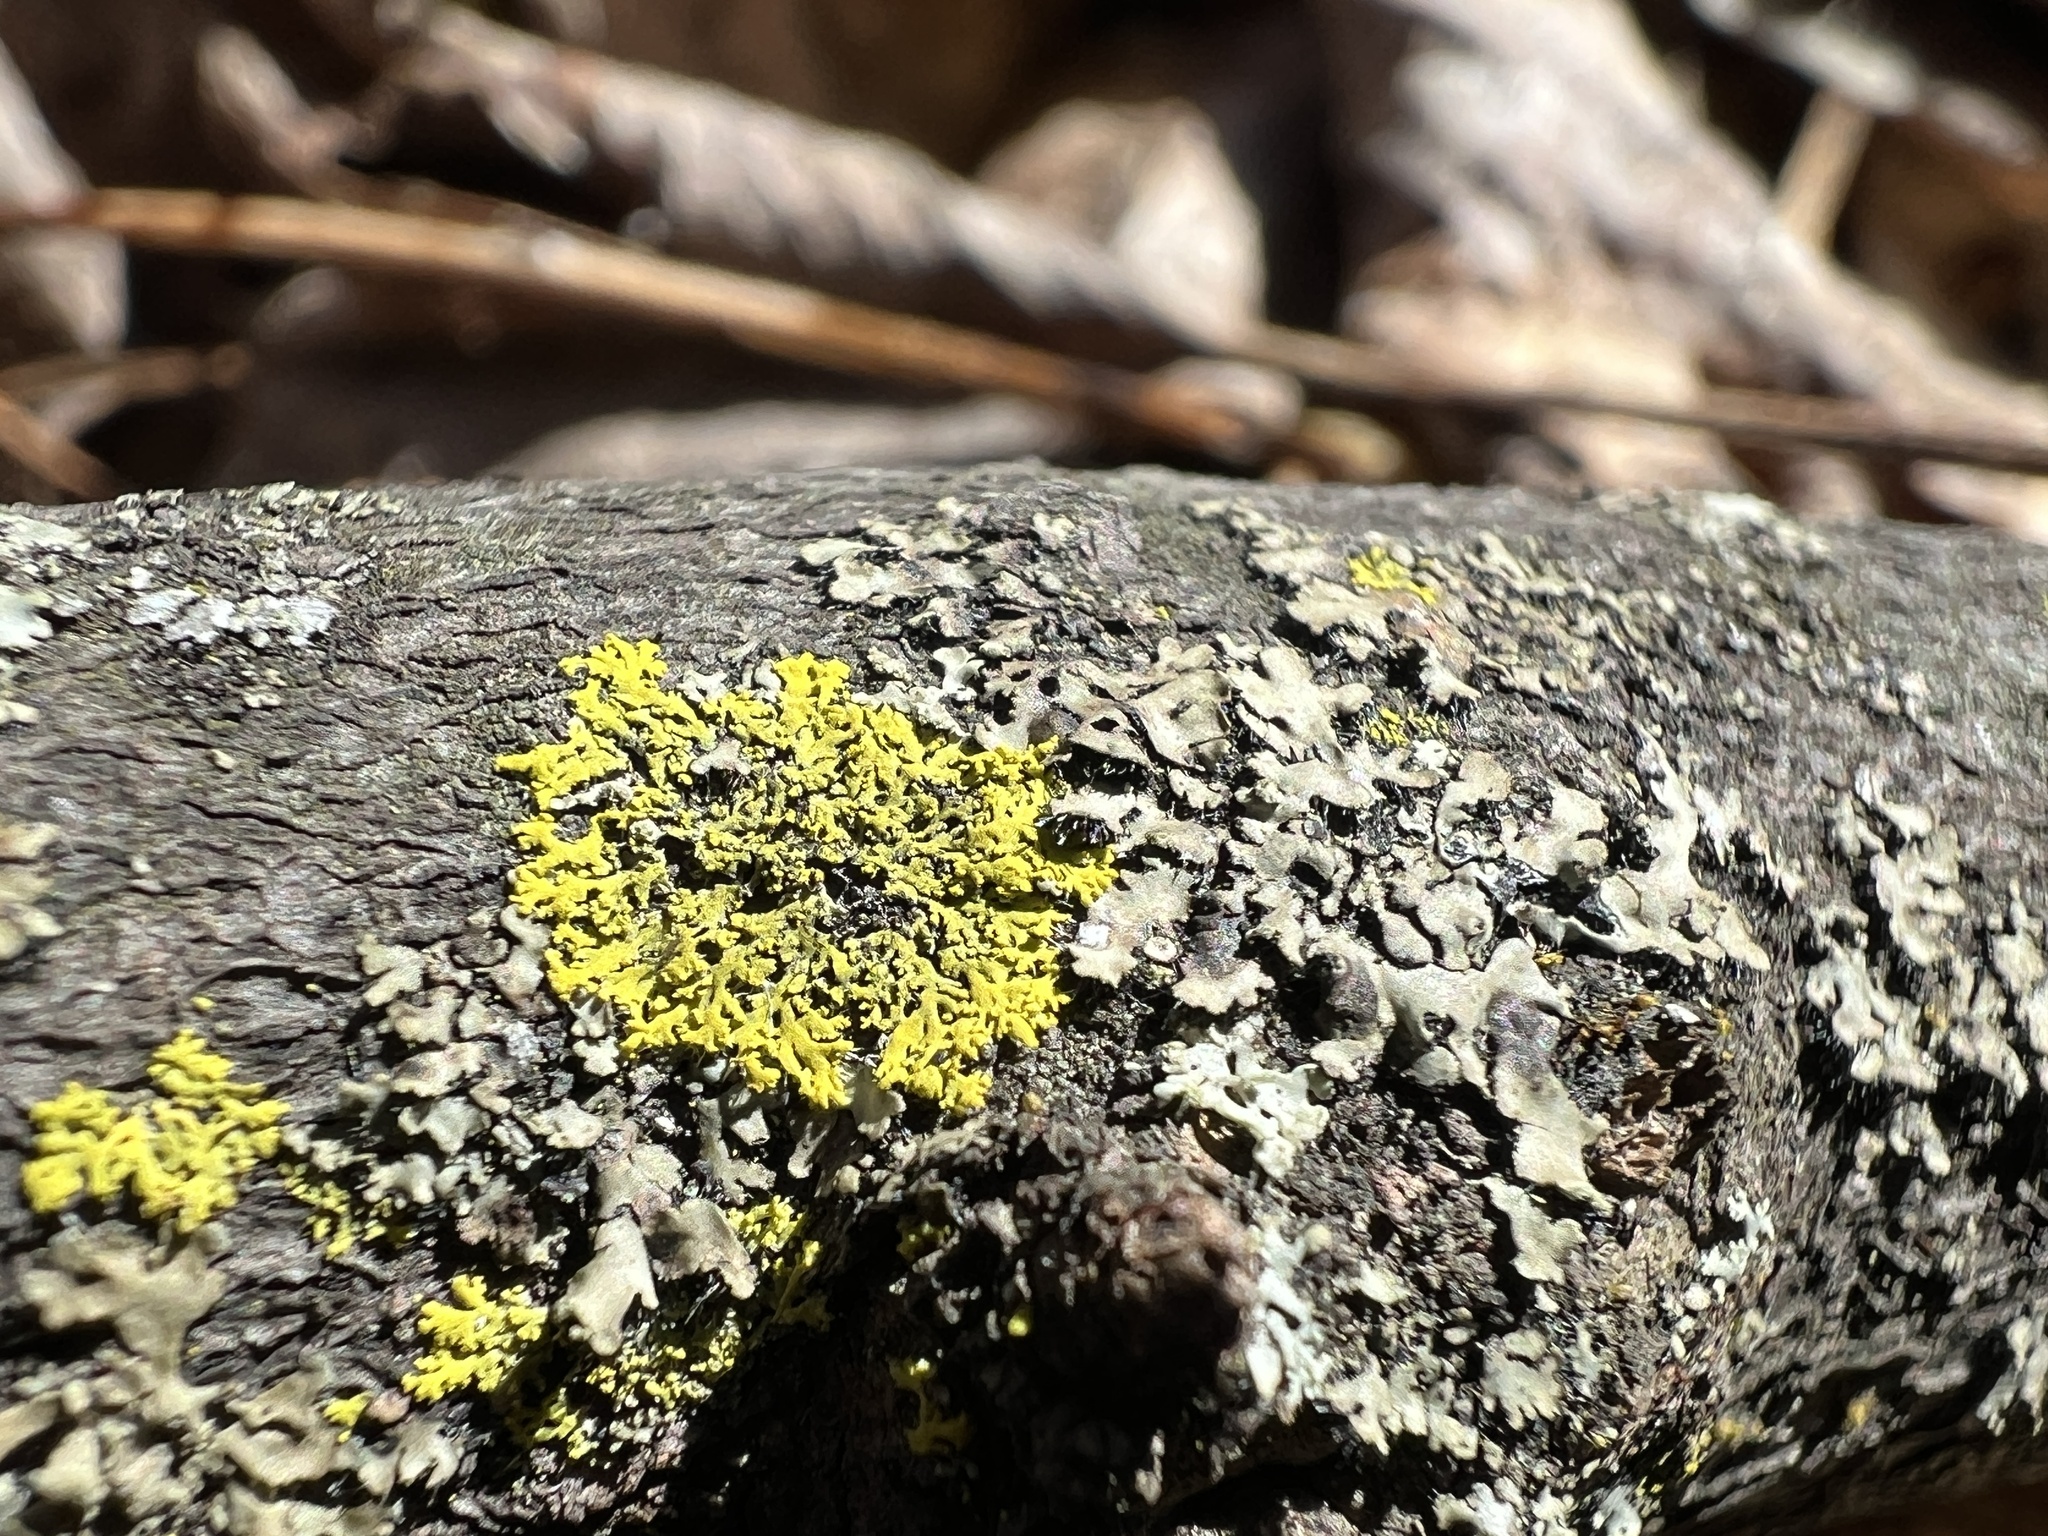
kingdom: Fungi
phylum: Ascomycota
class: Candelariomycetes
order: Candelariales
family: Candelariaceae
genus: Candelaria
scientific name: Candelaria concolor
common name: Candleflame lichen
